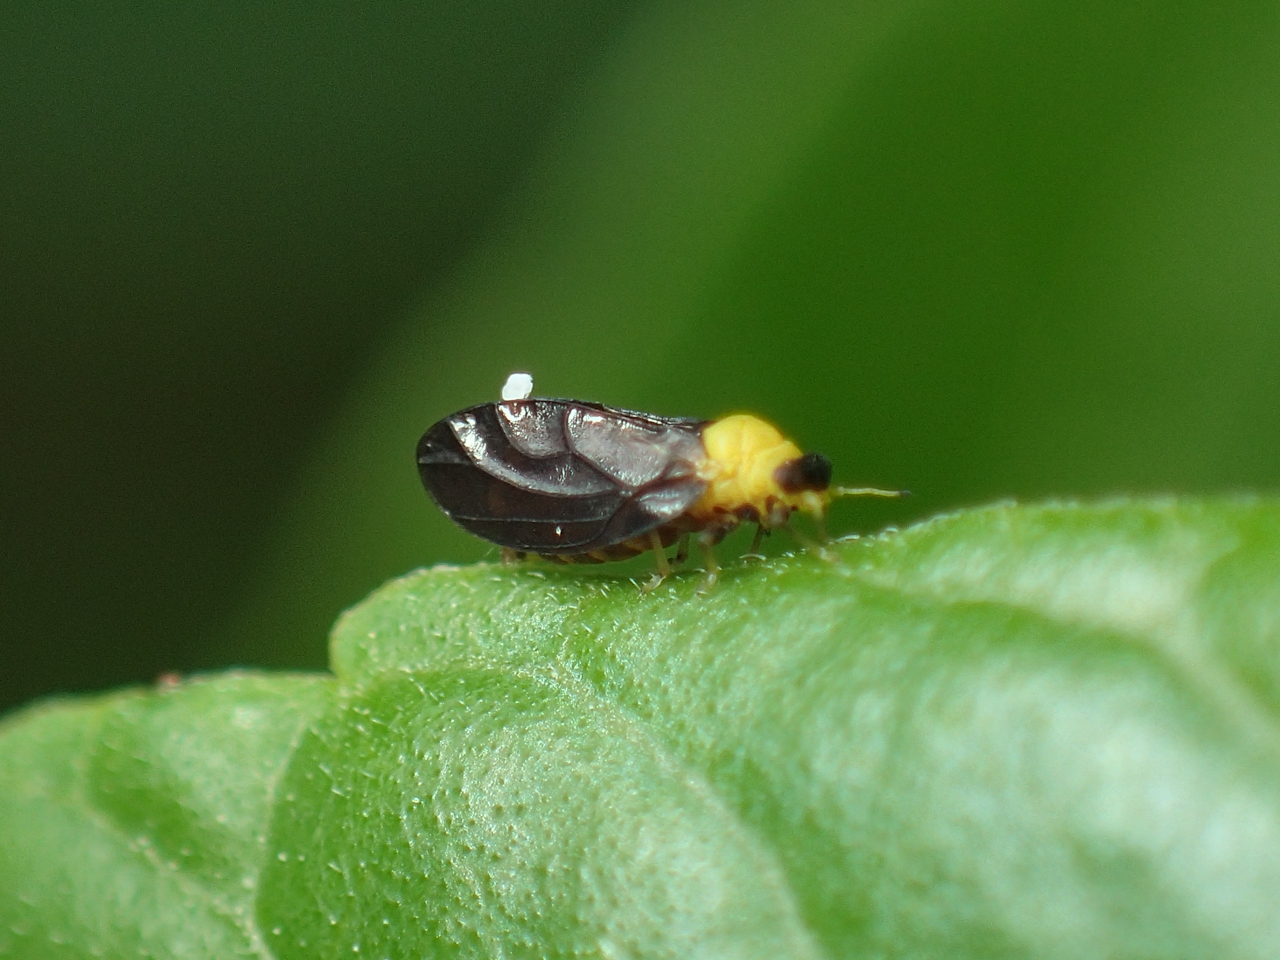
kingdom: Animalia
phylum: Arthropoda
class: Insecta
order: Hemiptera
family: Calophyidae
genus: Calophya
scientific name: Calophya nigripennis
